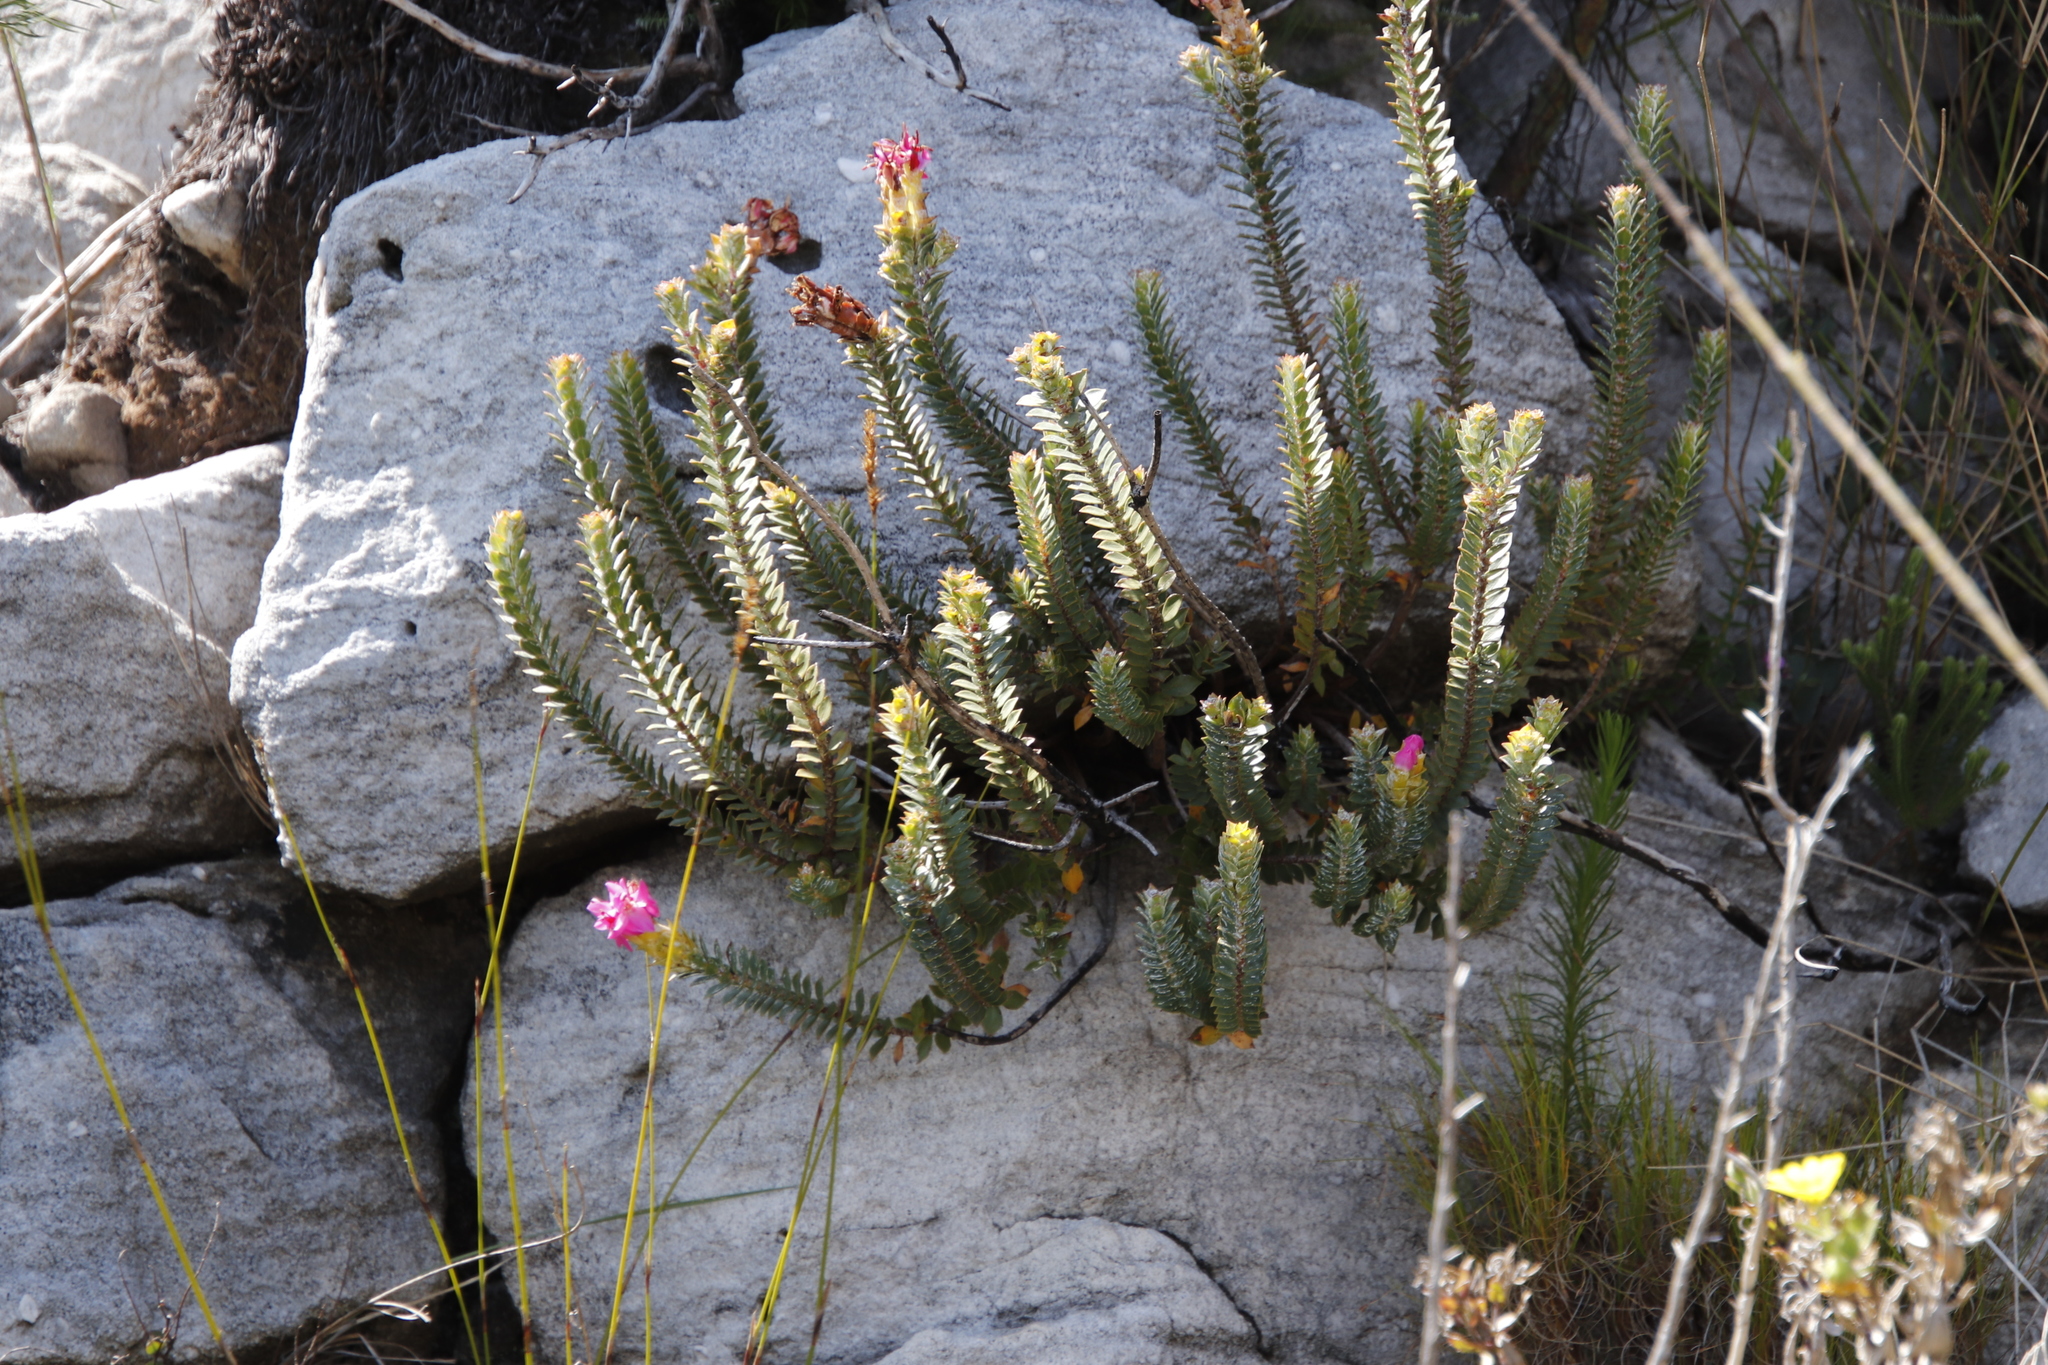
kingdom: Plantae
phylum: Tracheophyta
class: Magnoliopsida
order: Myrtales
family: Penaeaceae
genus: Saltera
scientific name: Saltera sarcocolla
